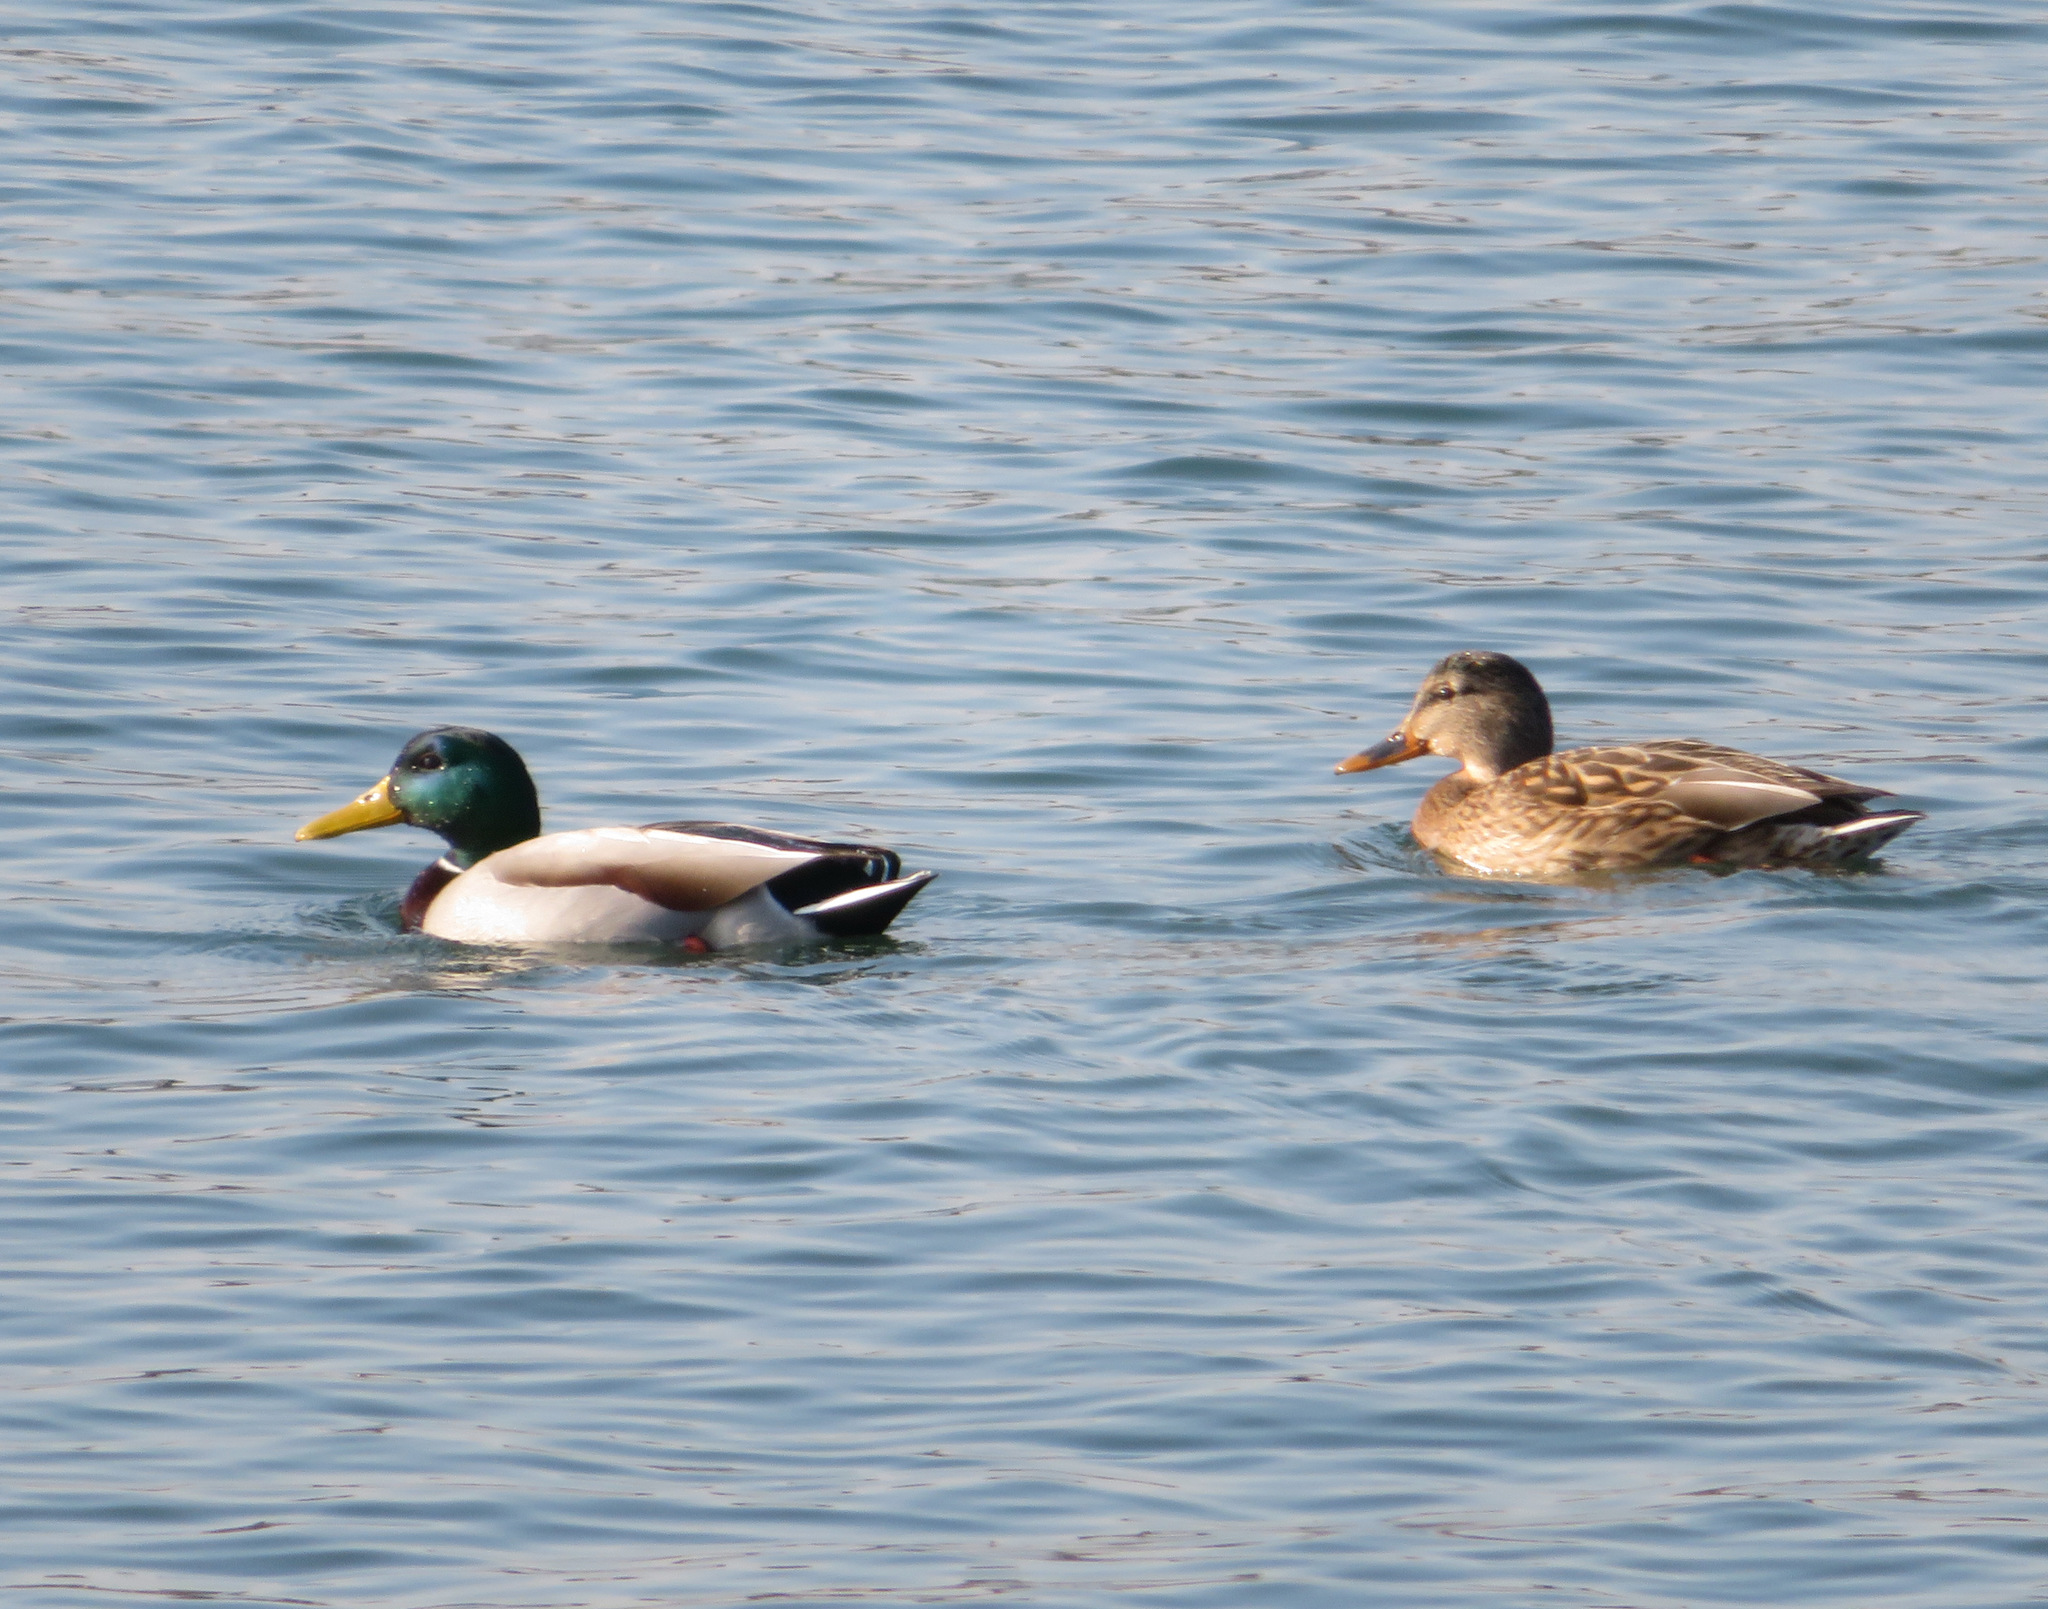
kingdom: Animalia
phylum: Chordata
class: Aves
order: Anseriformes
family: Anatidae
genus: Anas
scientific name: Anas platyrhynchos
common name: Mallard
